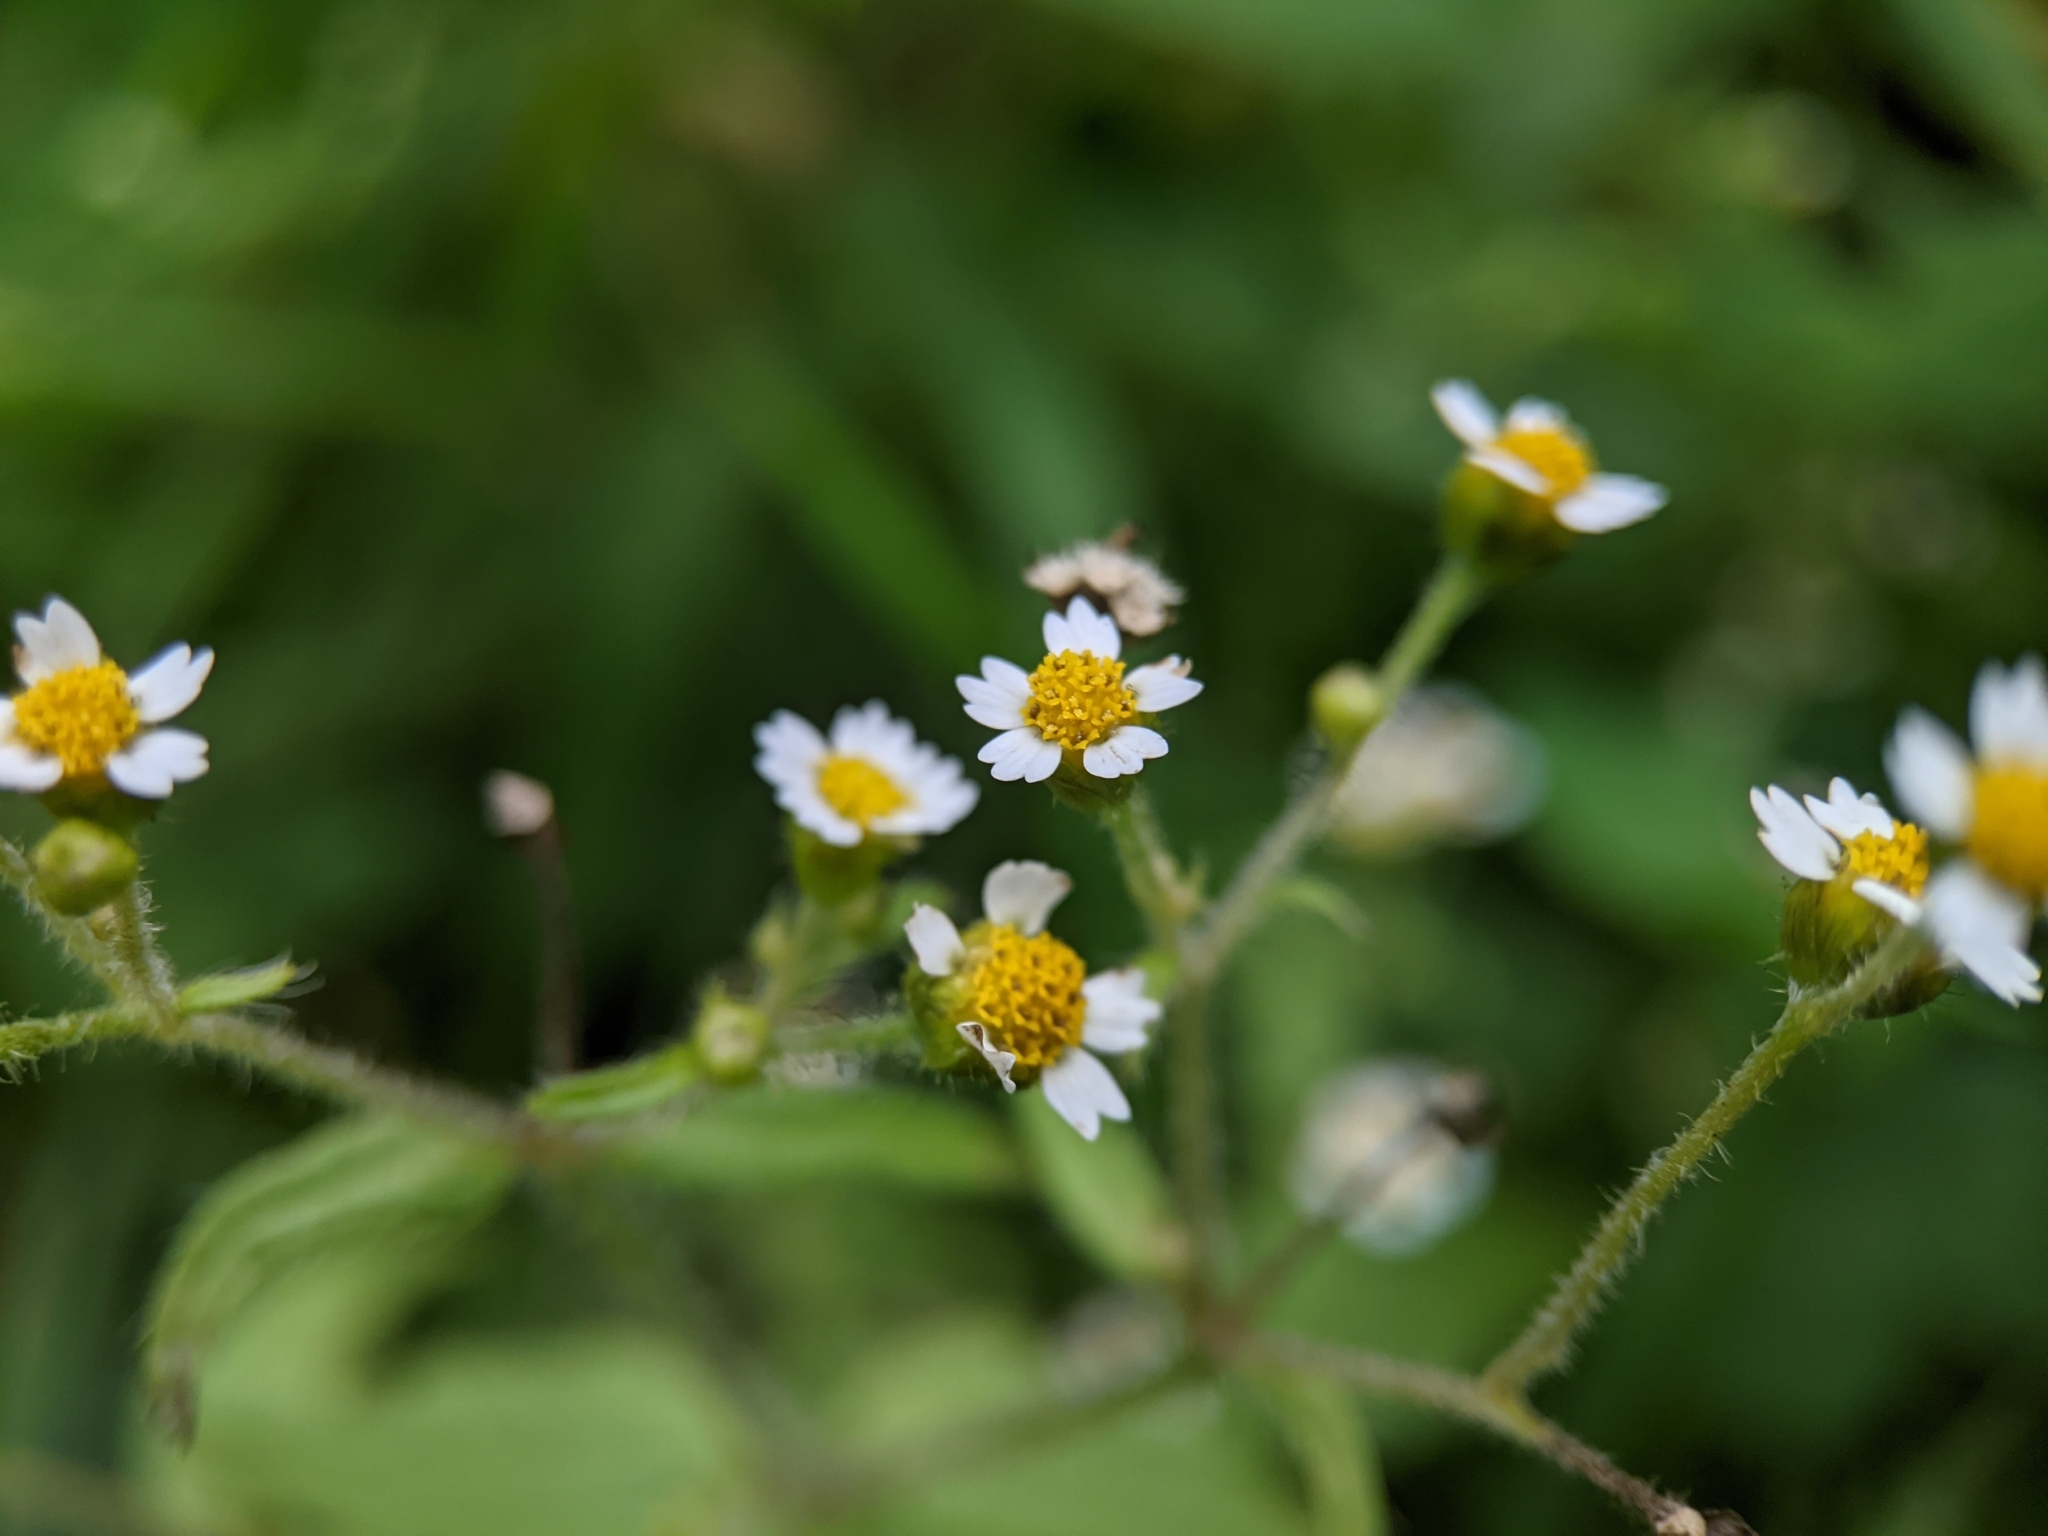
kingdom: Plantae
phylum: Tracheophyta
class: Magnoliopsida
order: Asterales
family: Asteraceae
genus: Galinsoga
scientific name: Galinsoga quadriradiata
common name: Shaggy soldier
